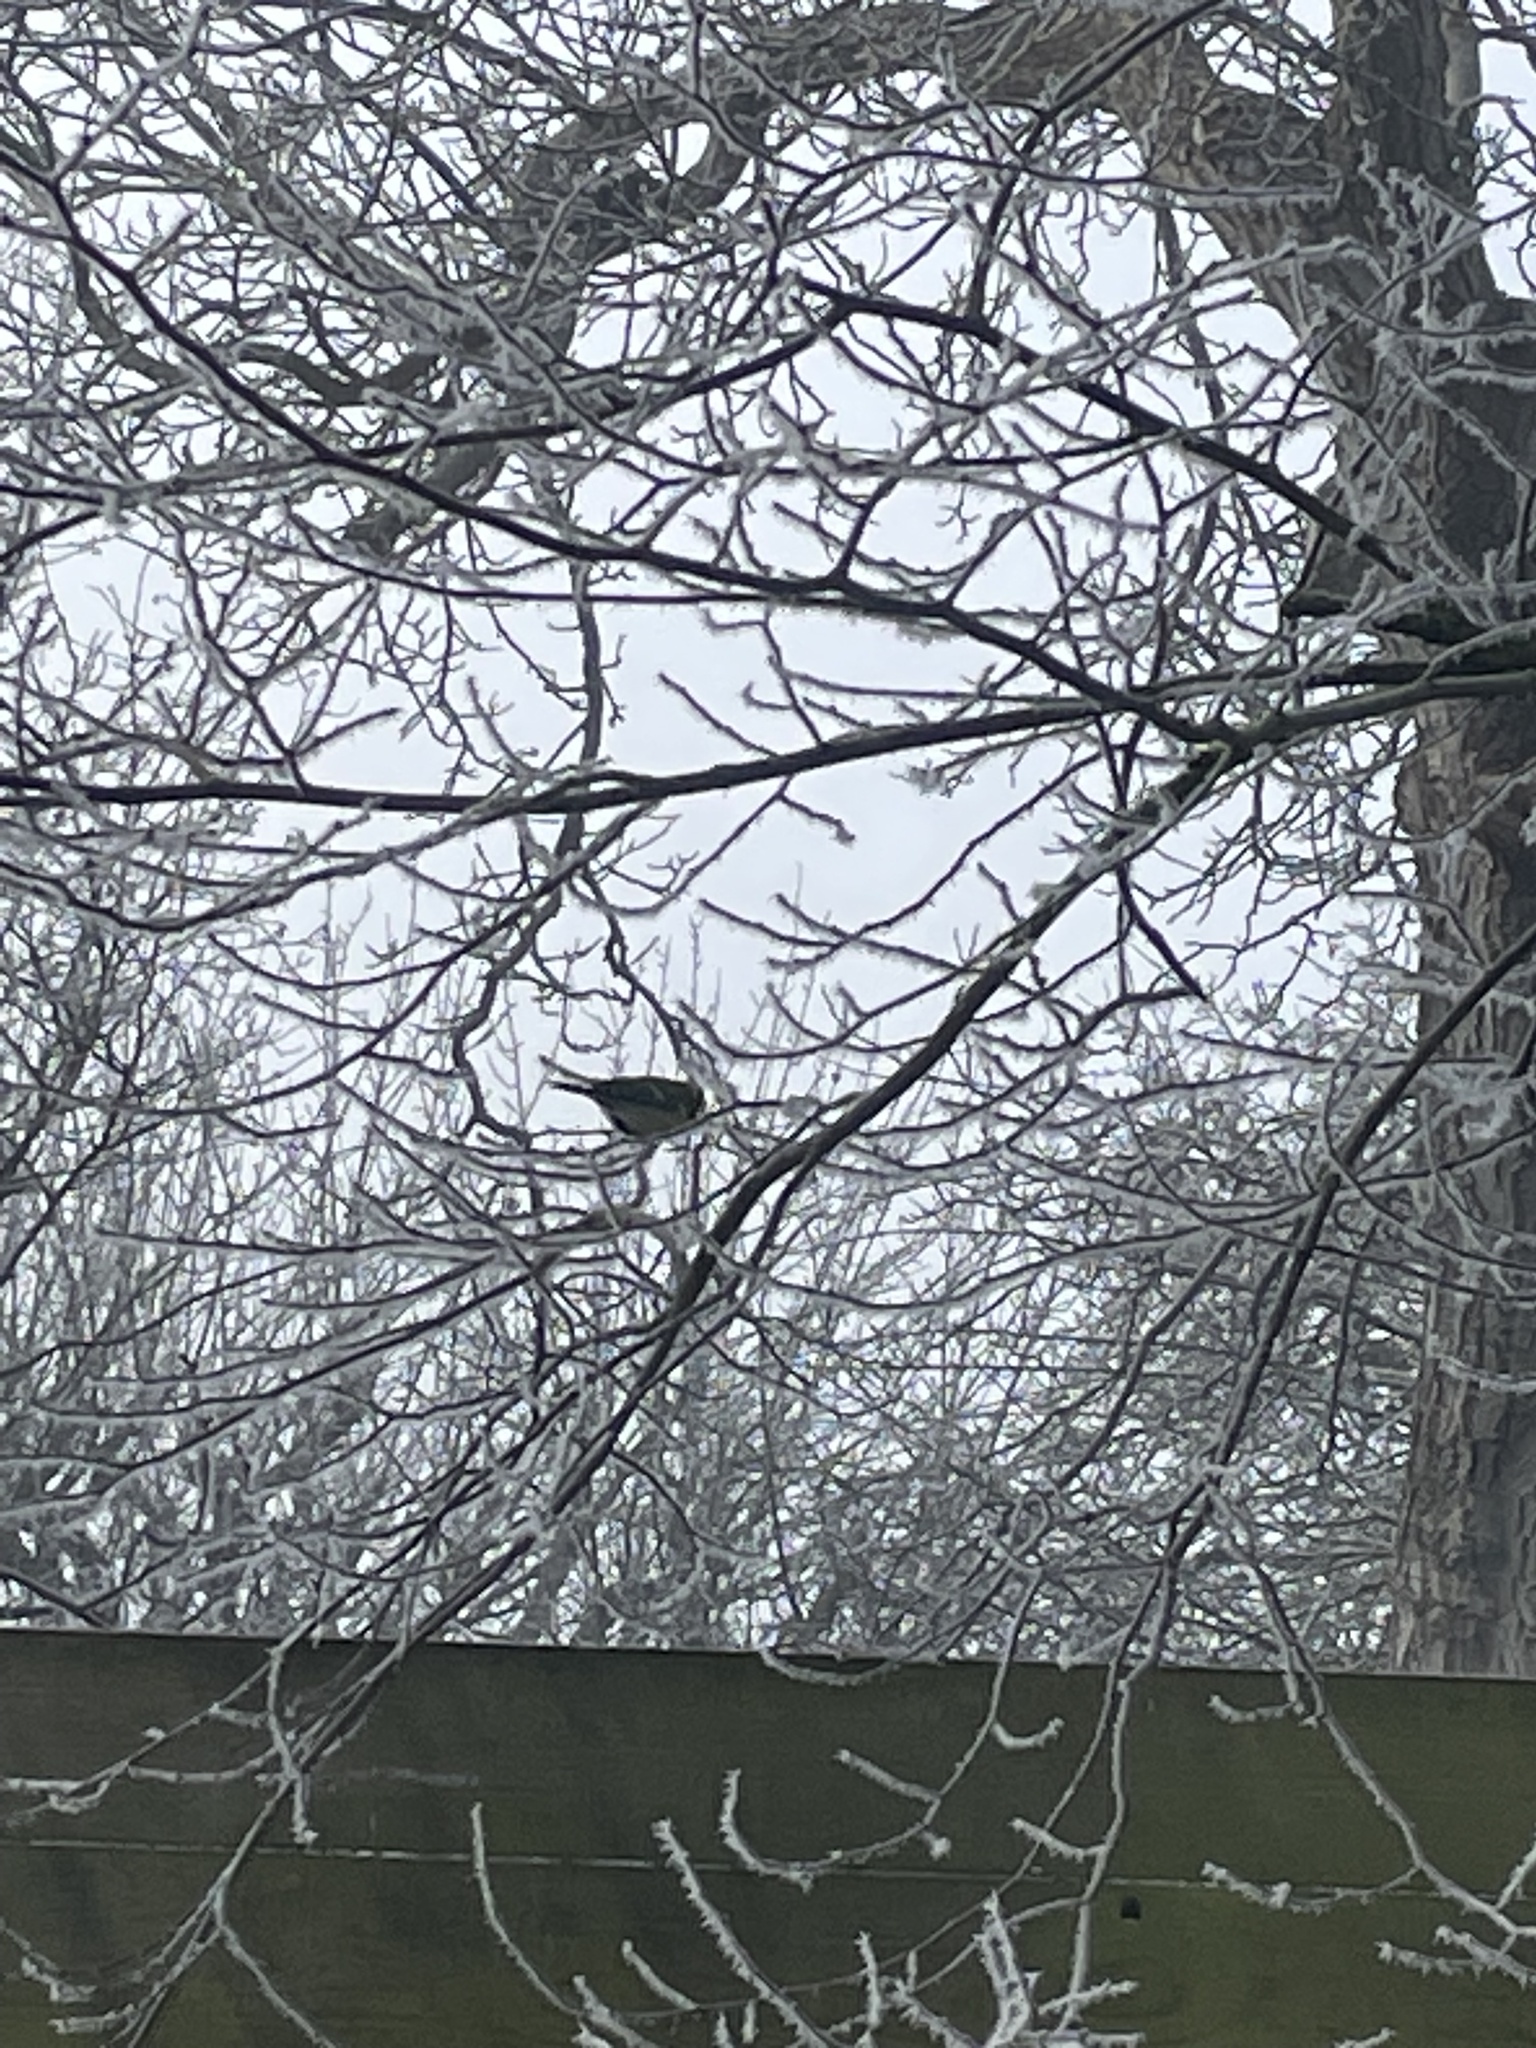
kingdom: Animalia
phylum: Chordata
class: Aves
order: Passeriformes
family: Paridae
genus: Parus
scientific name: Parus major
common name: Great tit
